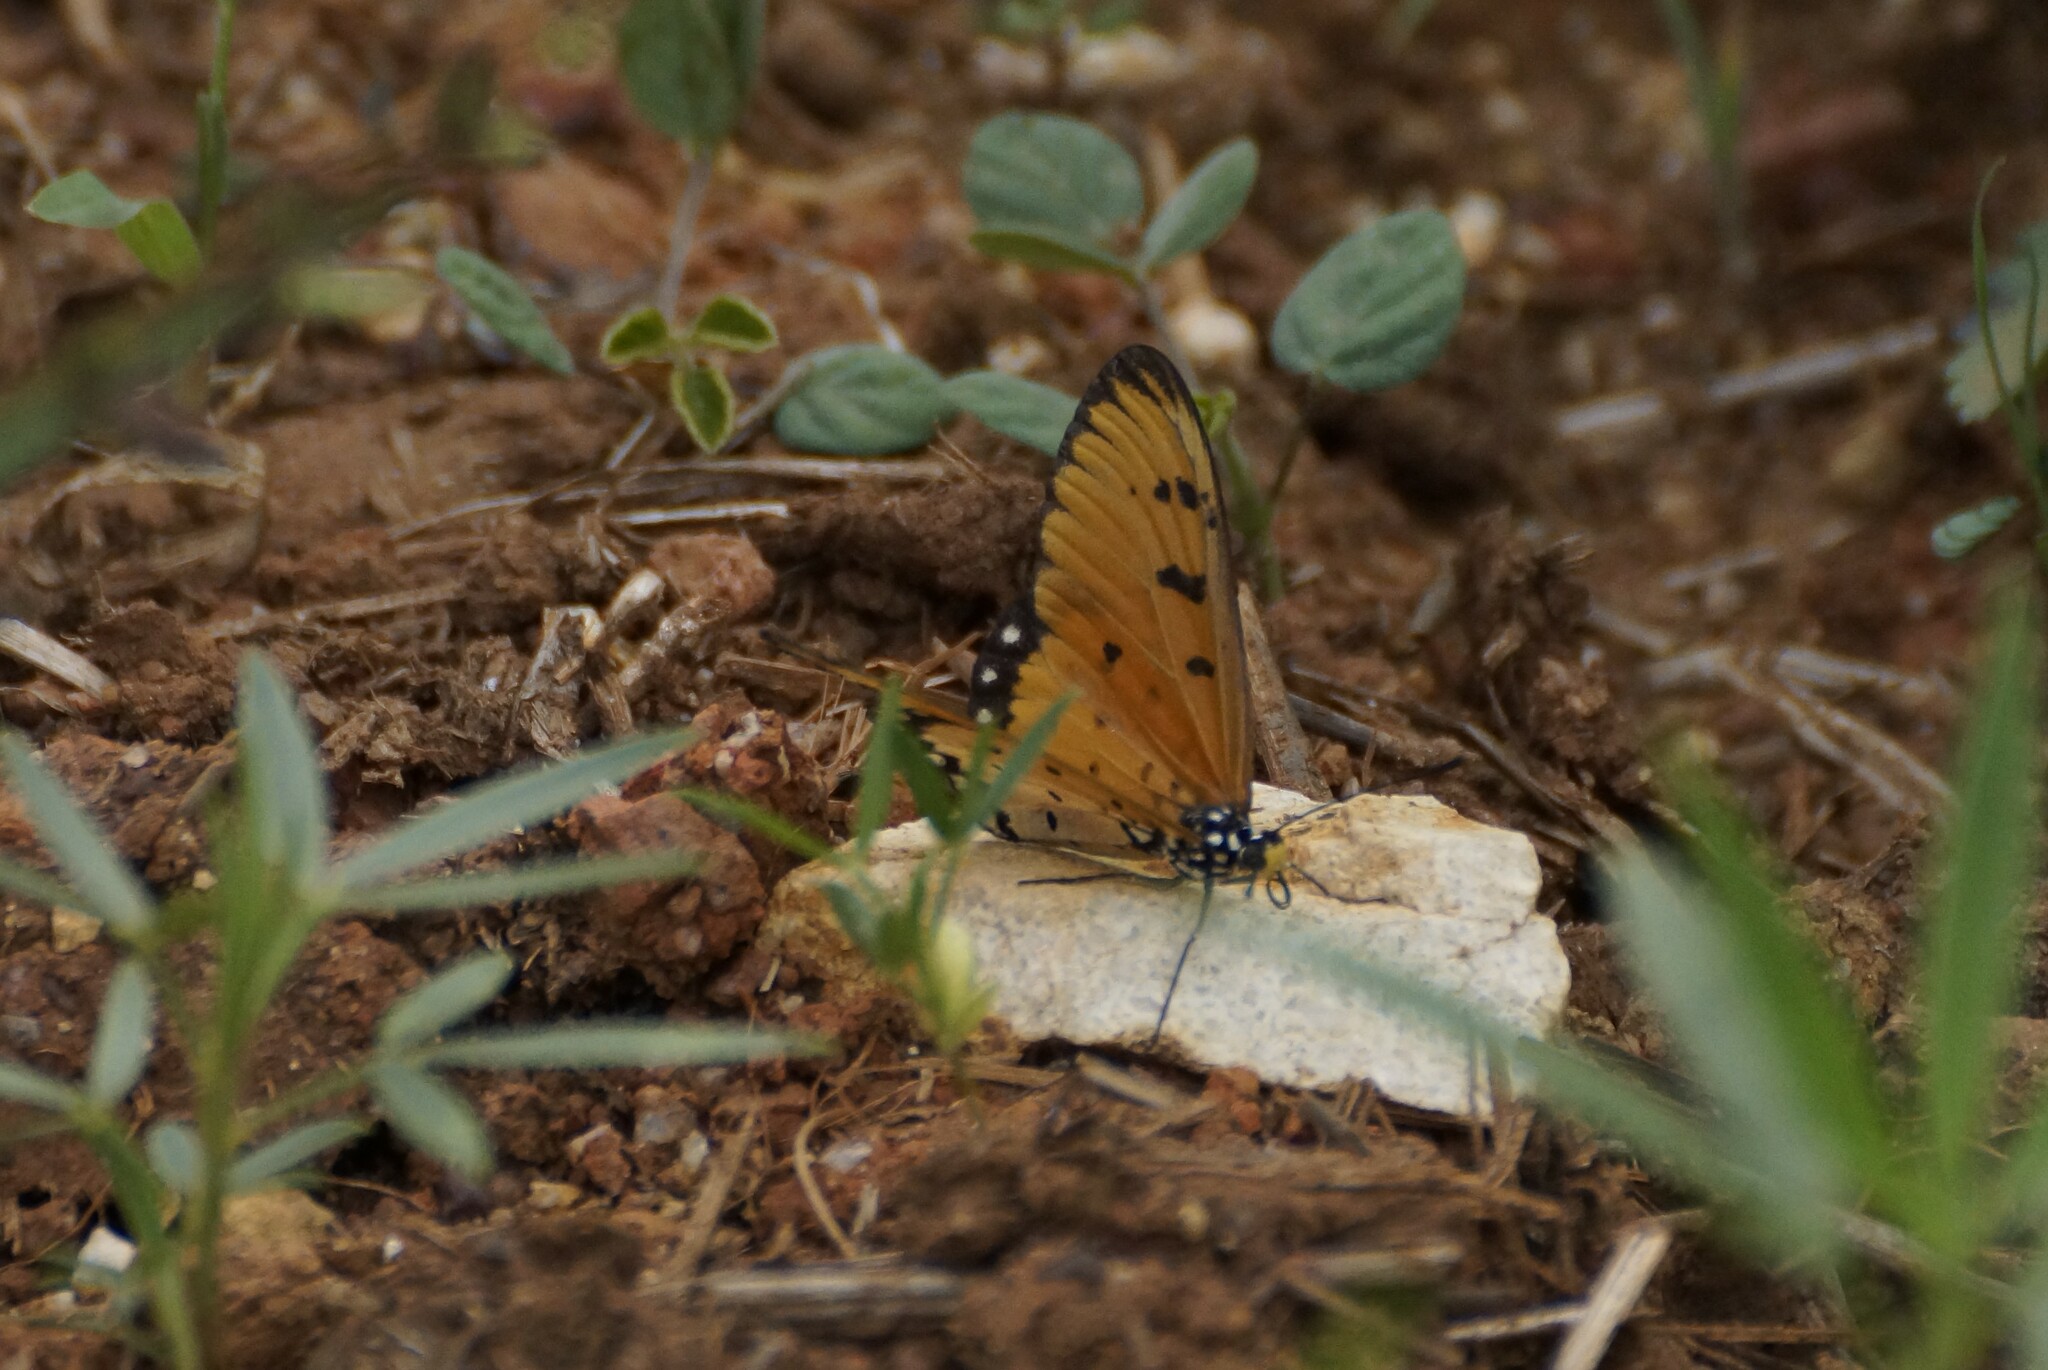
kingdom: Animalia
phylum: Arthropoda
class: Insecta
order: Lepidoptera
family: Nymphalidae
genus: Acraea
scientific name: Acraea terpsicore
